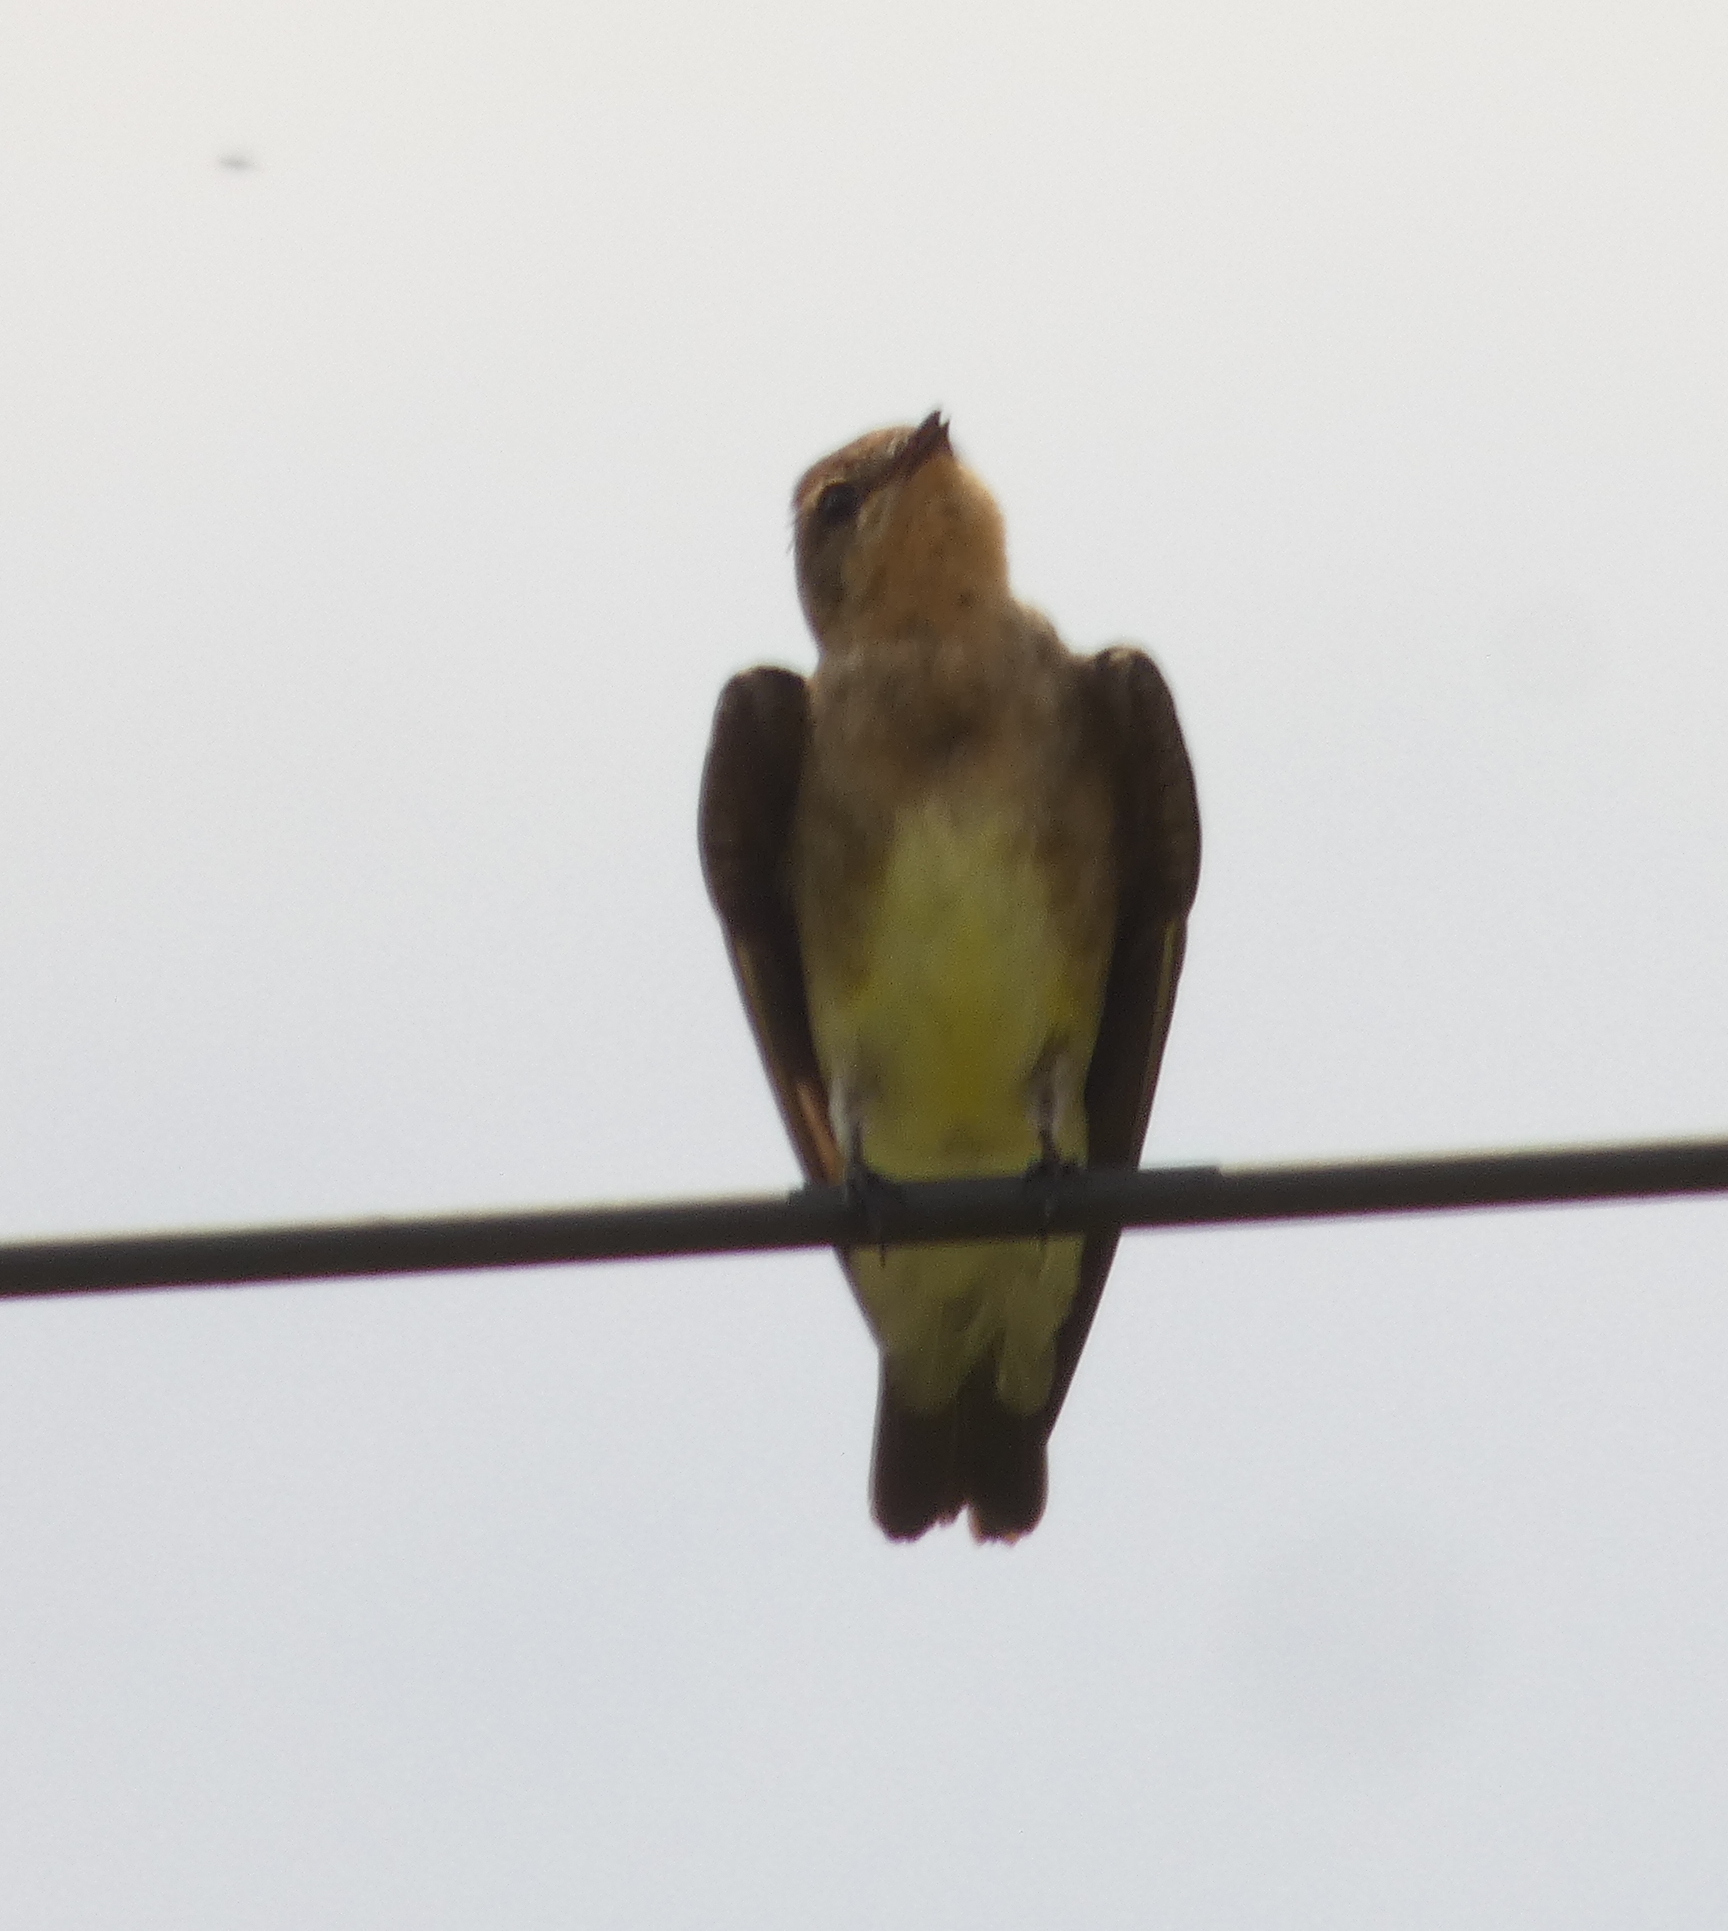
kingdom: Animalia
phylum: Chordata
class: Aves
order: Passeriformes
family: Hirundinidae
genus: Stelgidopteryx
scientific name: Stelgidopteryx ruficollis
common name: Southern rough-winged swallow
